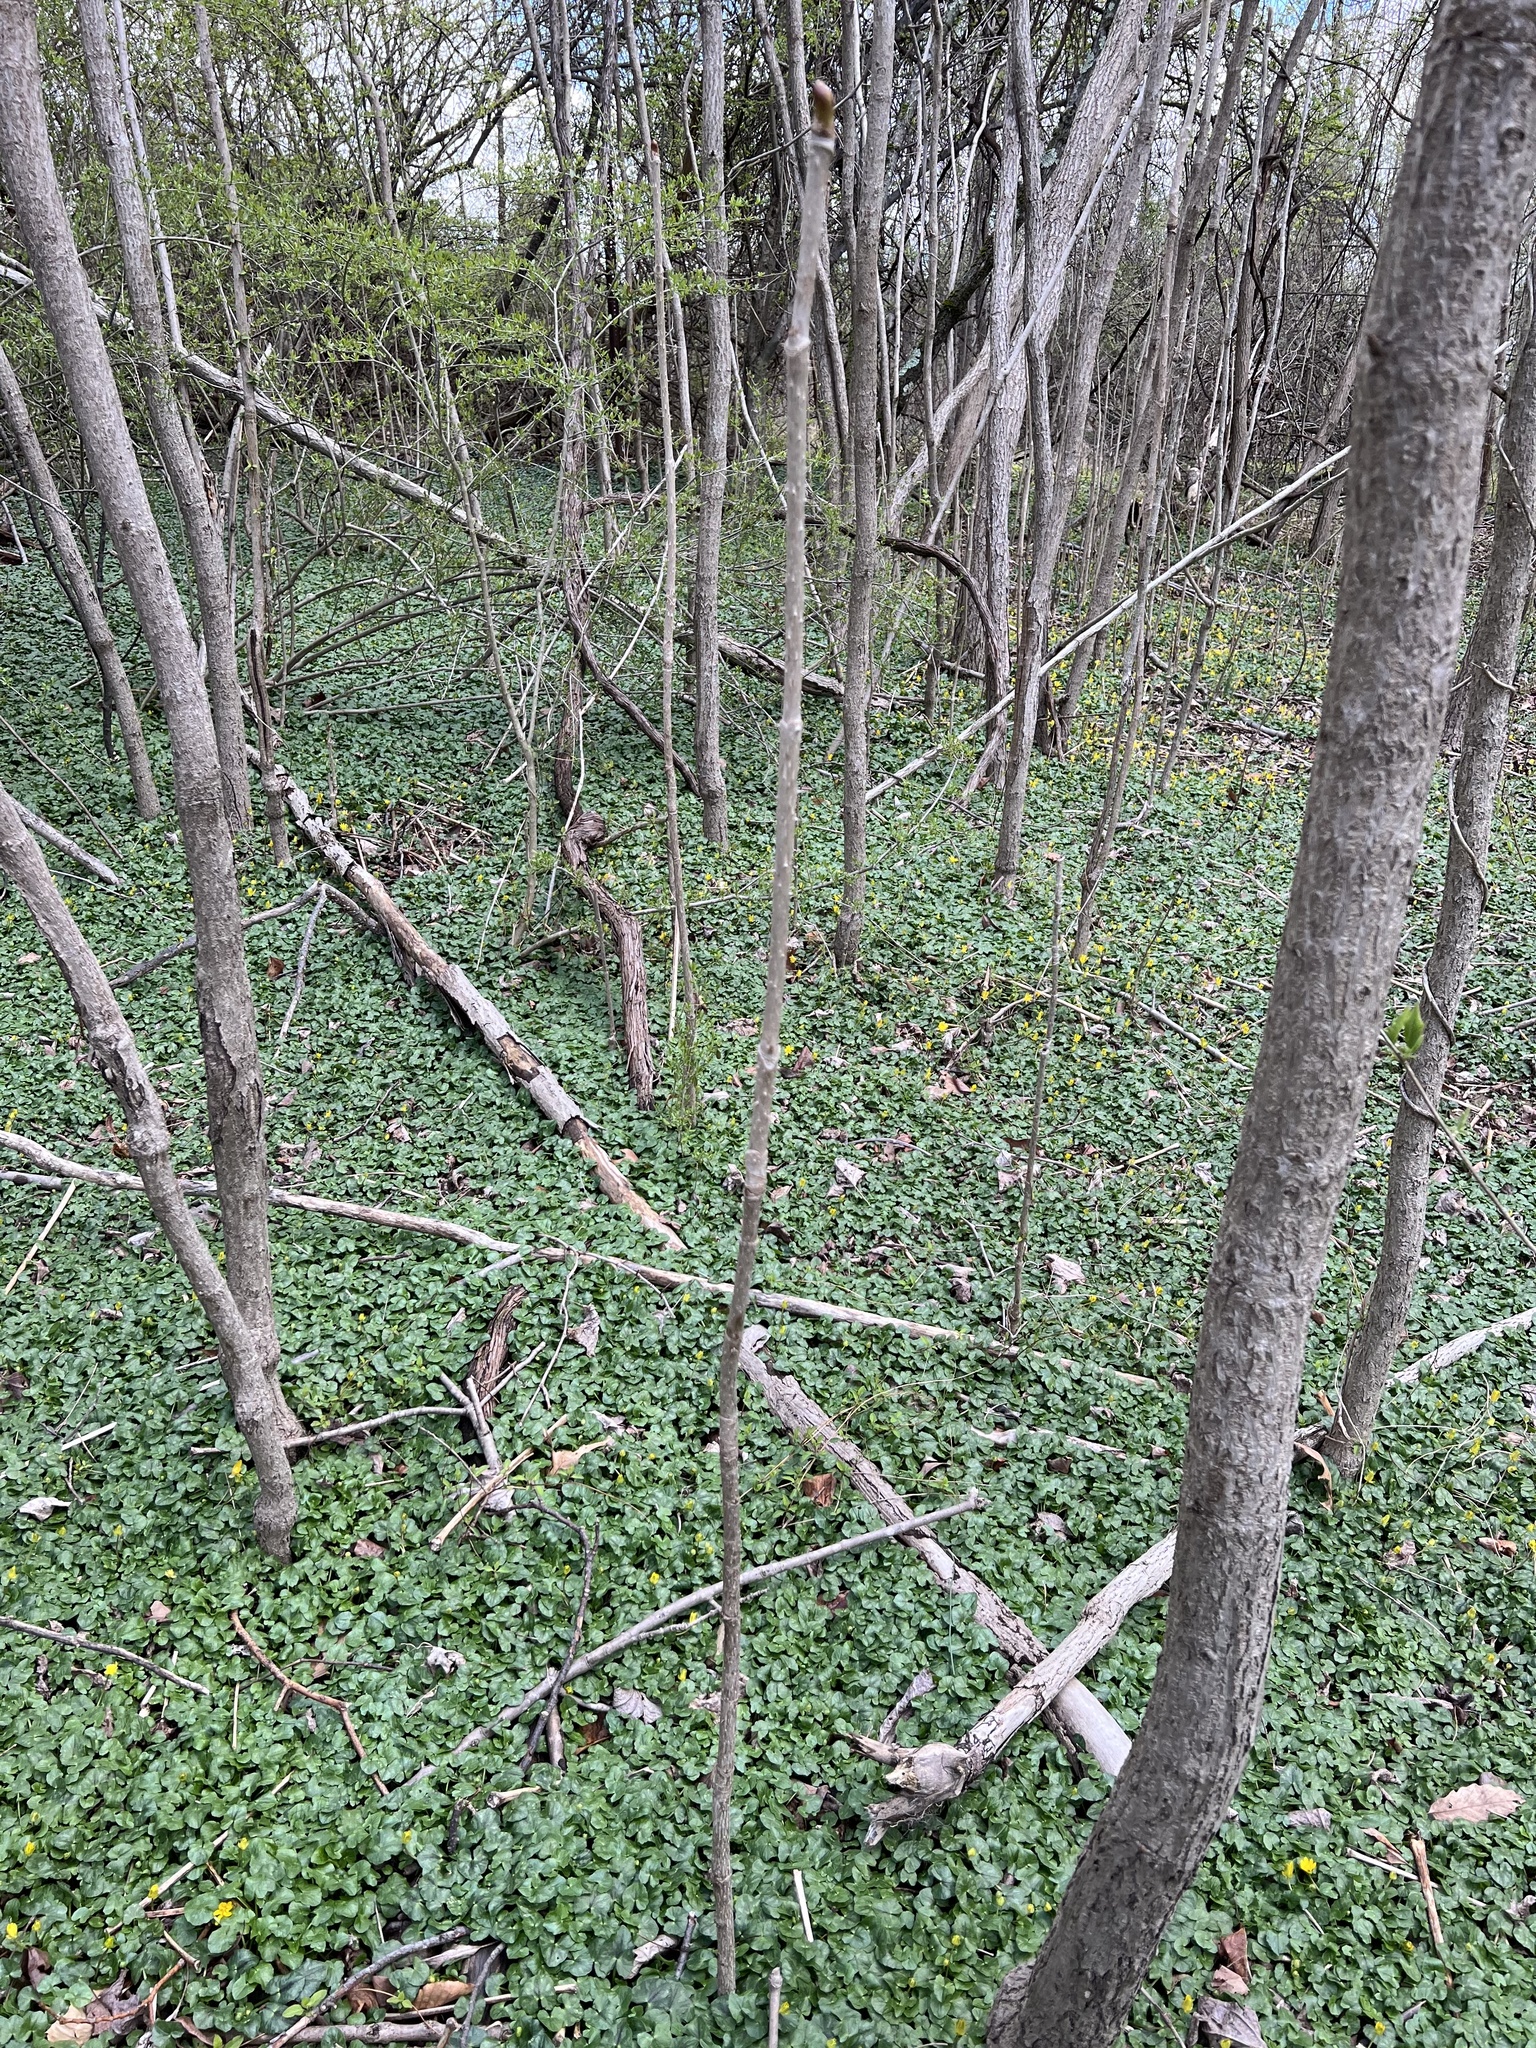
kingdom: Plantae
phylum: Tracheophyta
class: Magnoliopsida
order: Apiales
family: Araliaceae
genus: Aralia
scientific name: Aralia elata
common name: Japanese angelica-tree
